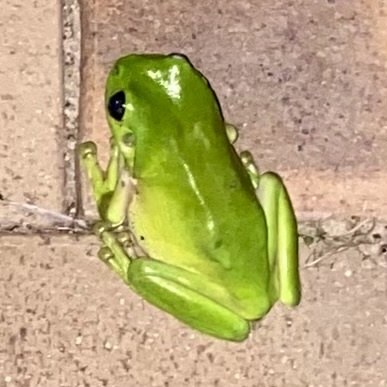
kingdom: Animalia
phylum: Chordata
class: Amphibia
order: Anura
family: Pelodryadidae
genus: Ranoidea
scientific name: Ranoidea caerulea
